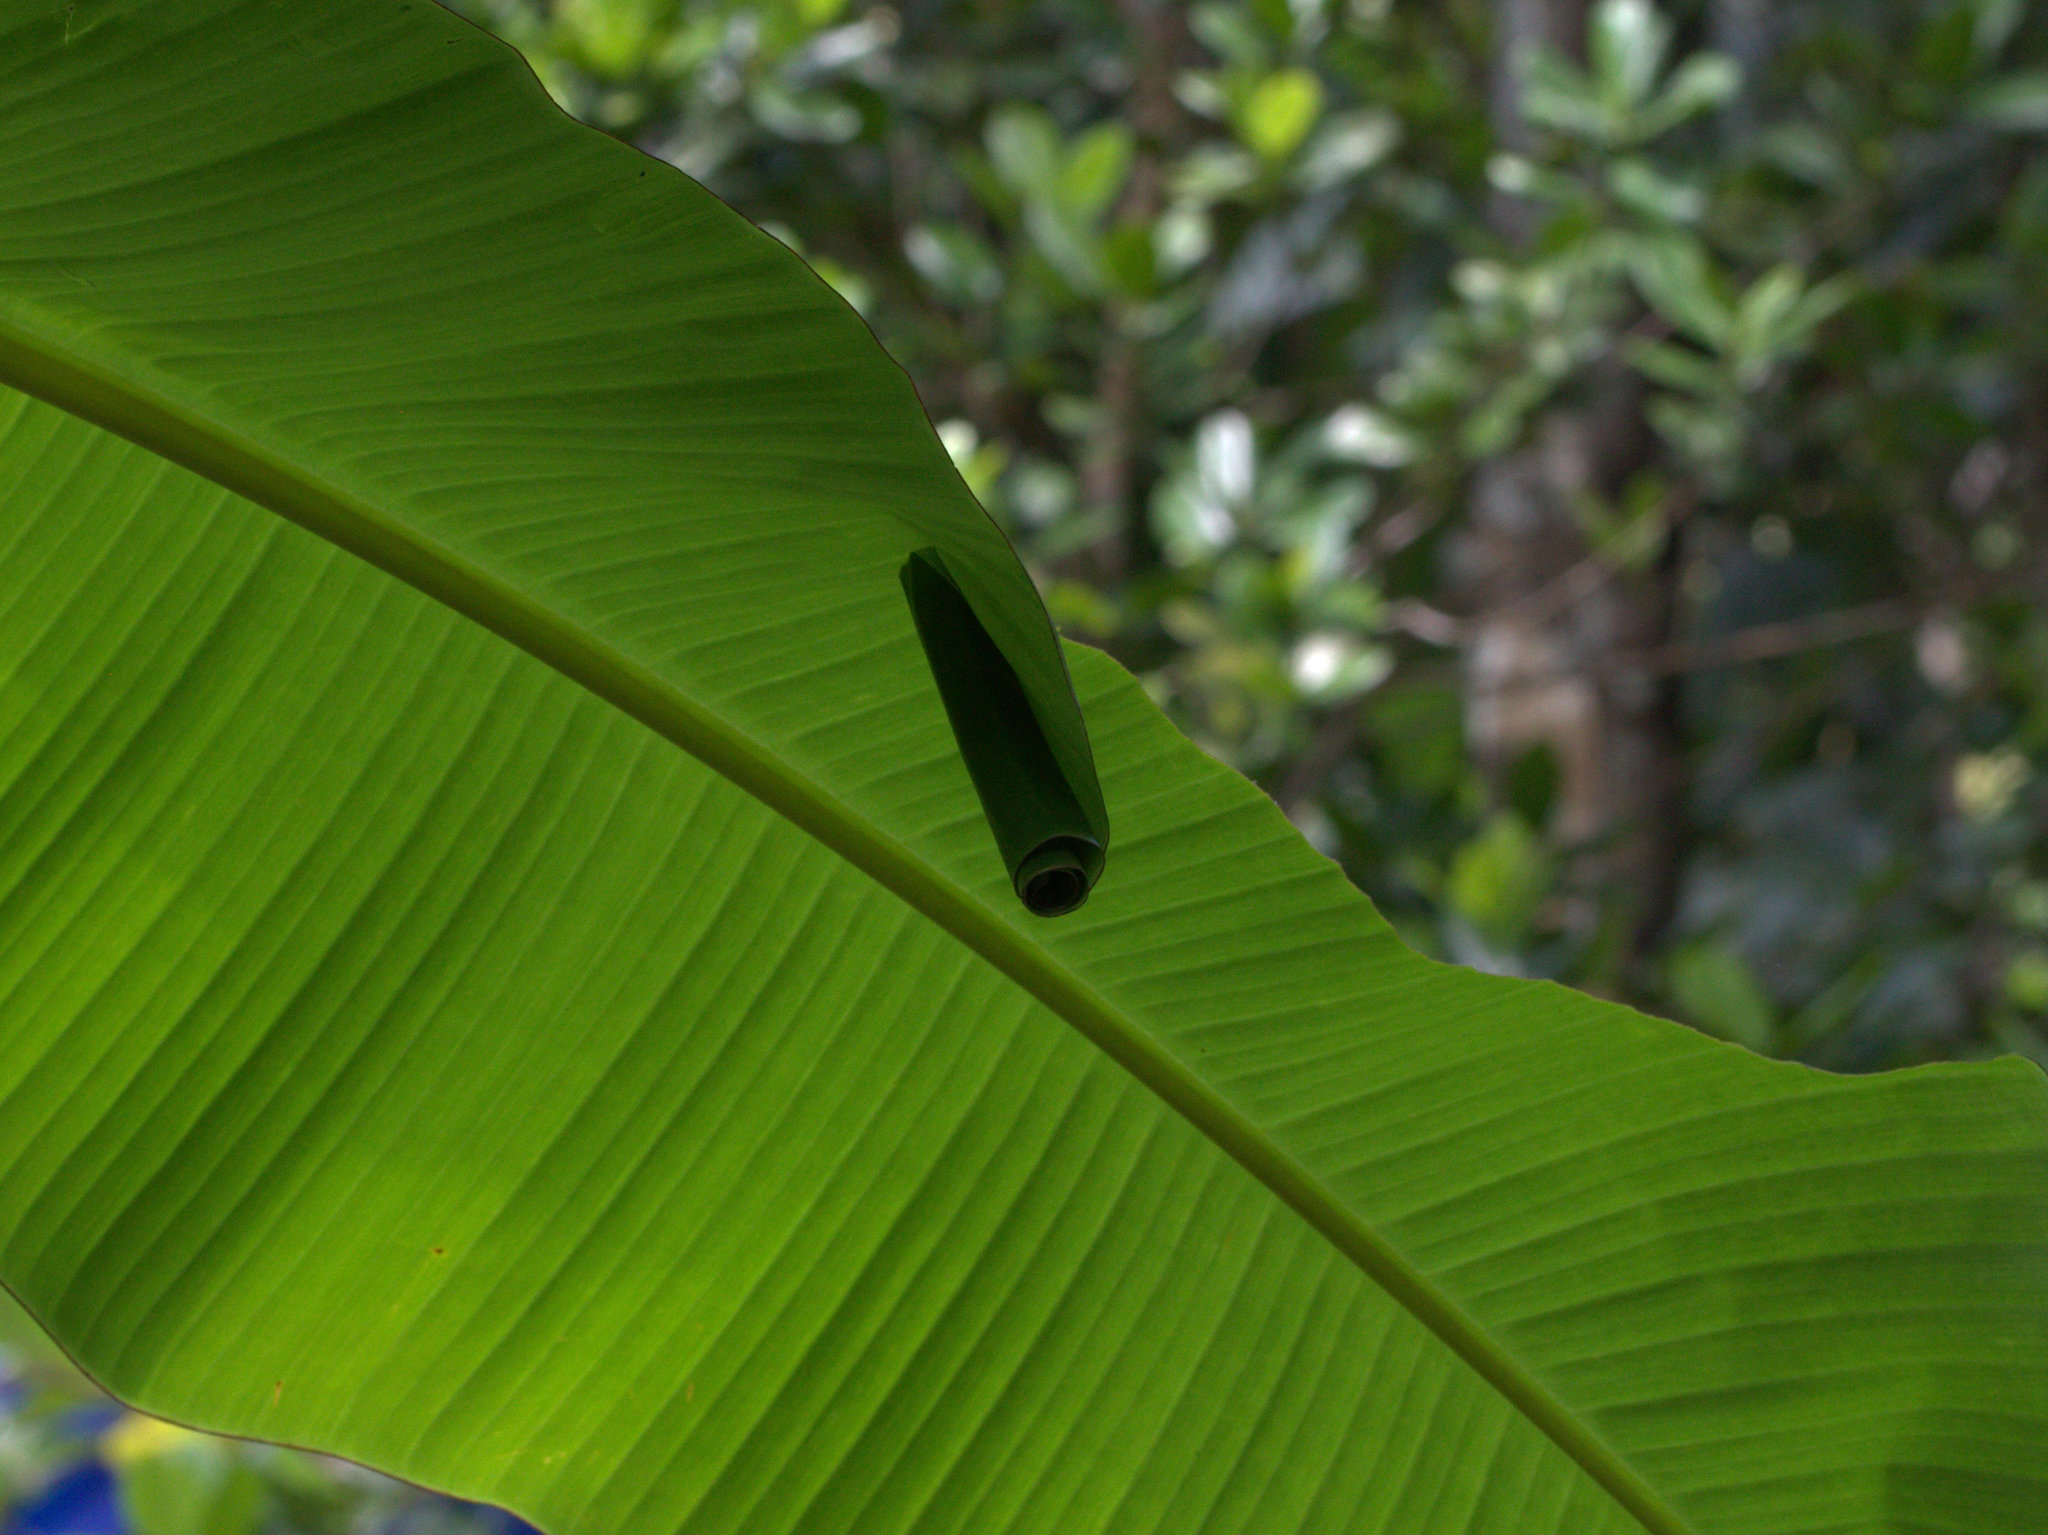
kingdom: Animalia
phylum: Arthropoda
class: Insecta
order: Lepidoptera
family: Hesperiidae
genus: Erionota
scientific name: Erionota torus
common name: Rounded palm-redeye
